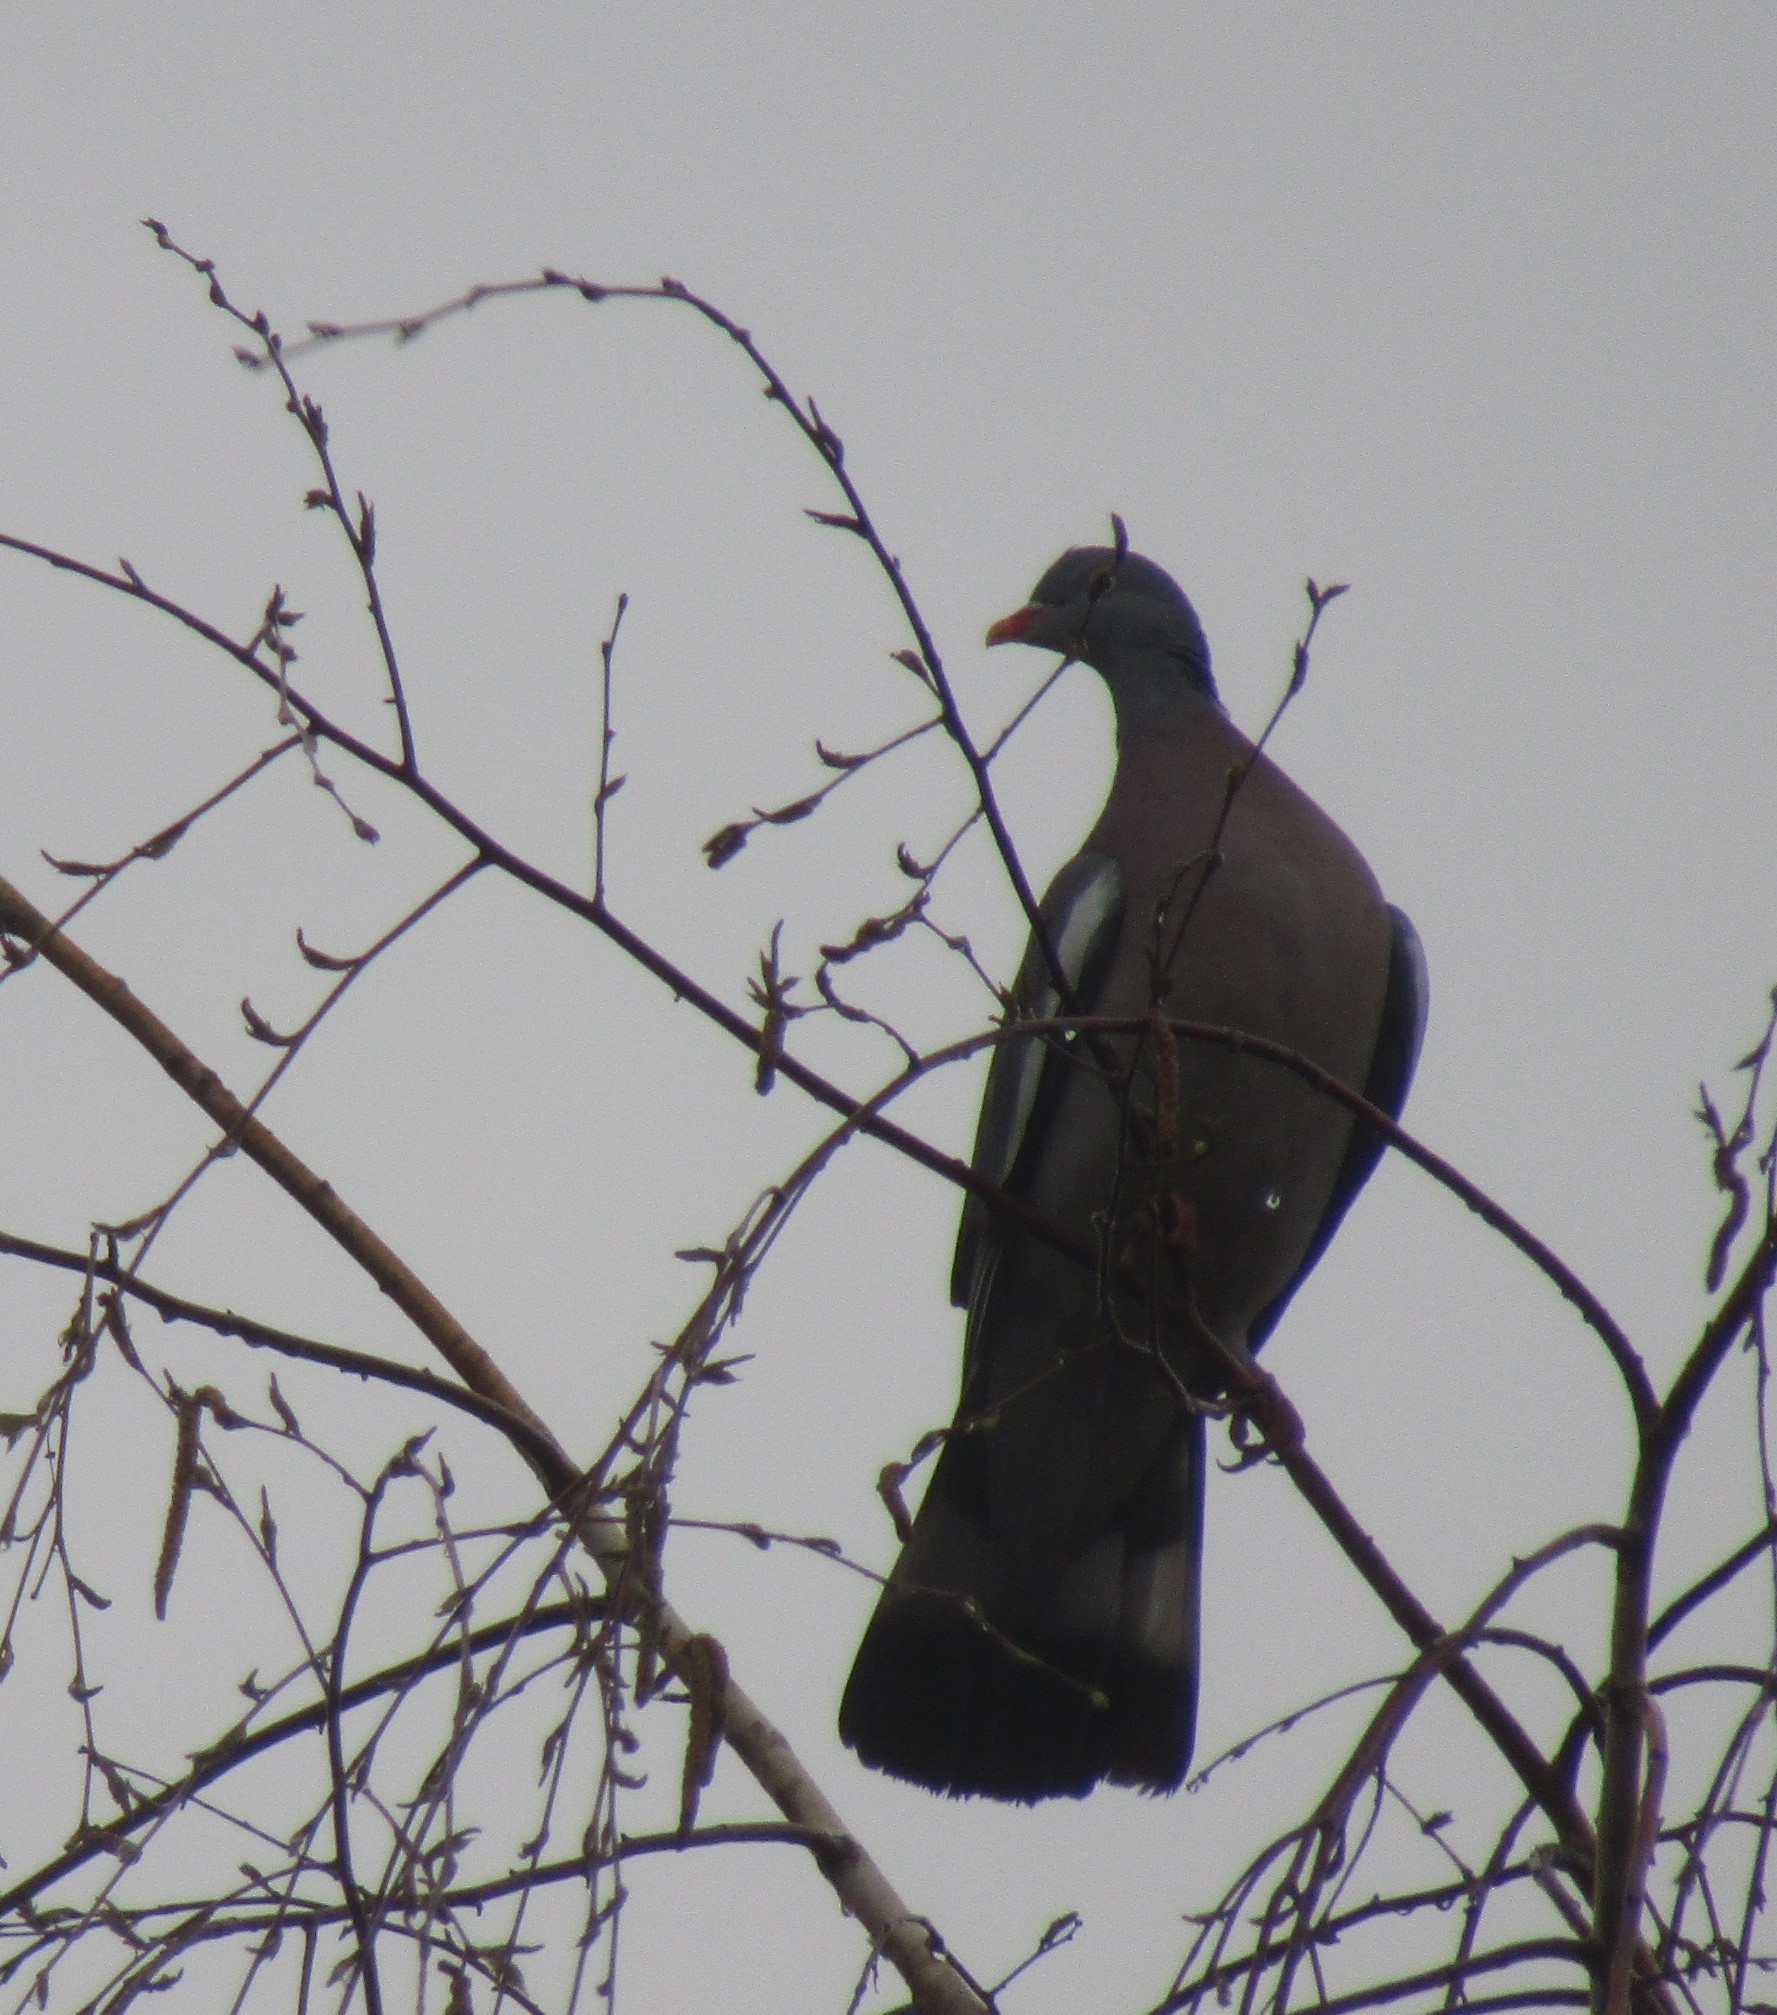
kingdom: Animalia
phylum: Chordata
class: Aves
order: Columbiformes
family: Columbidae
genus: Columba
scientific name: Columba palumbus
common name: Common wood pigeon
